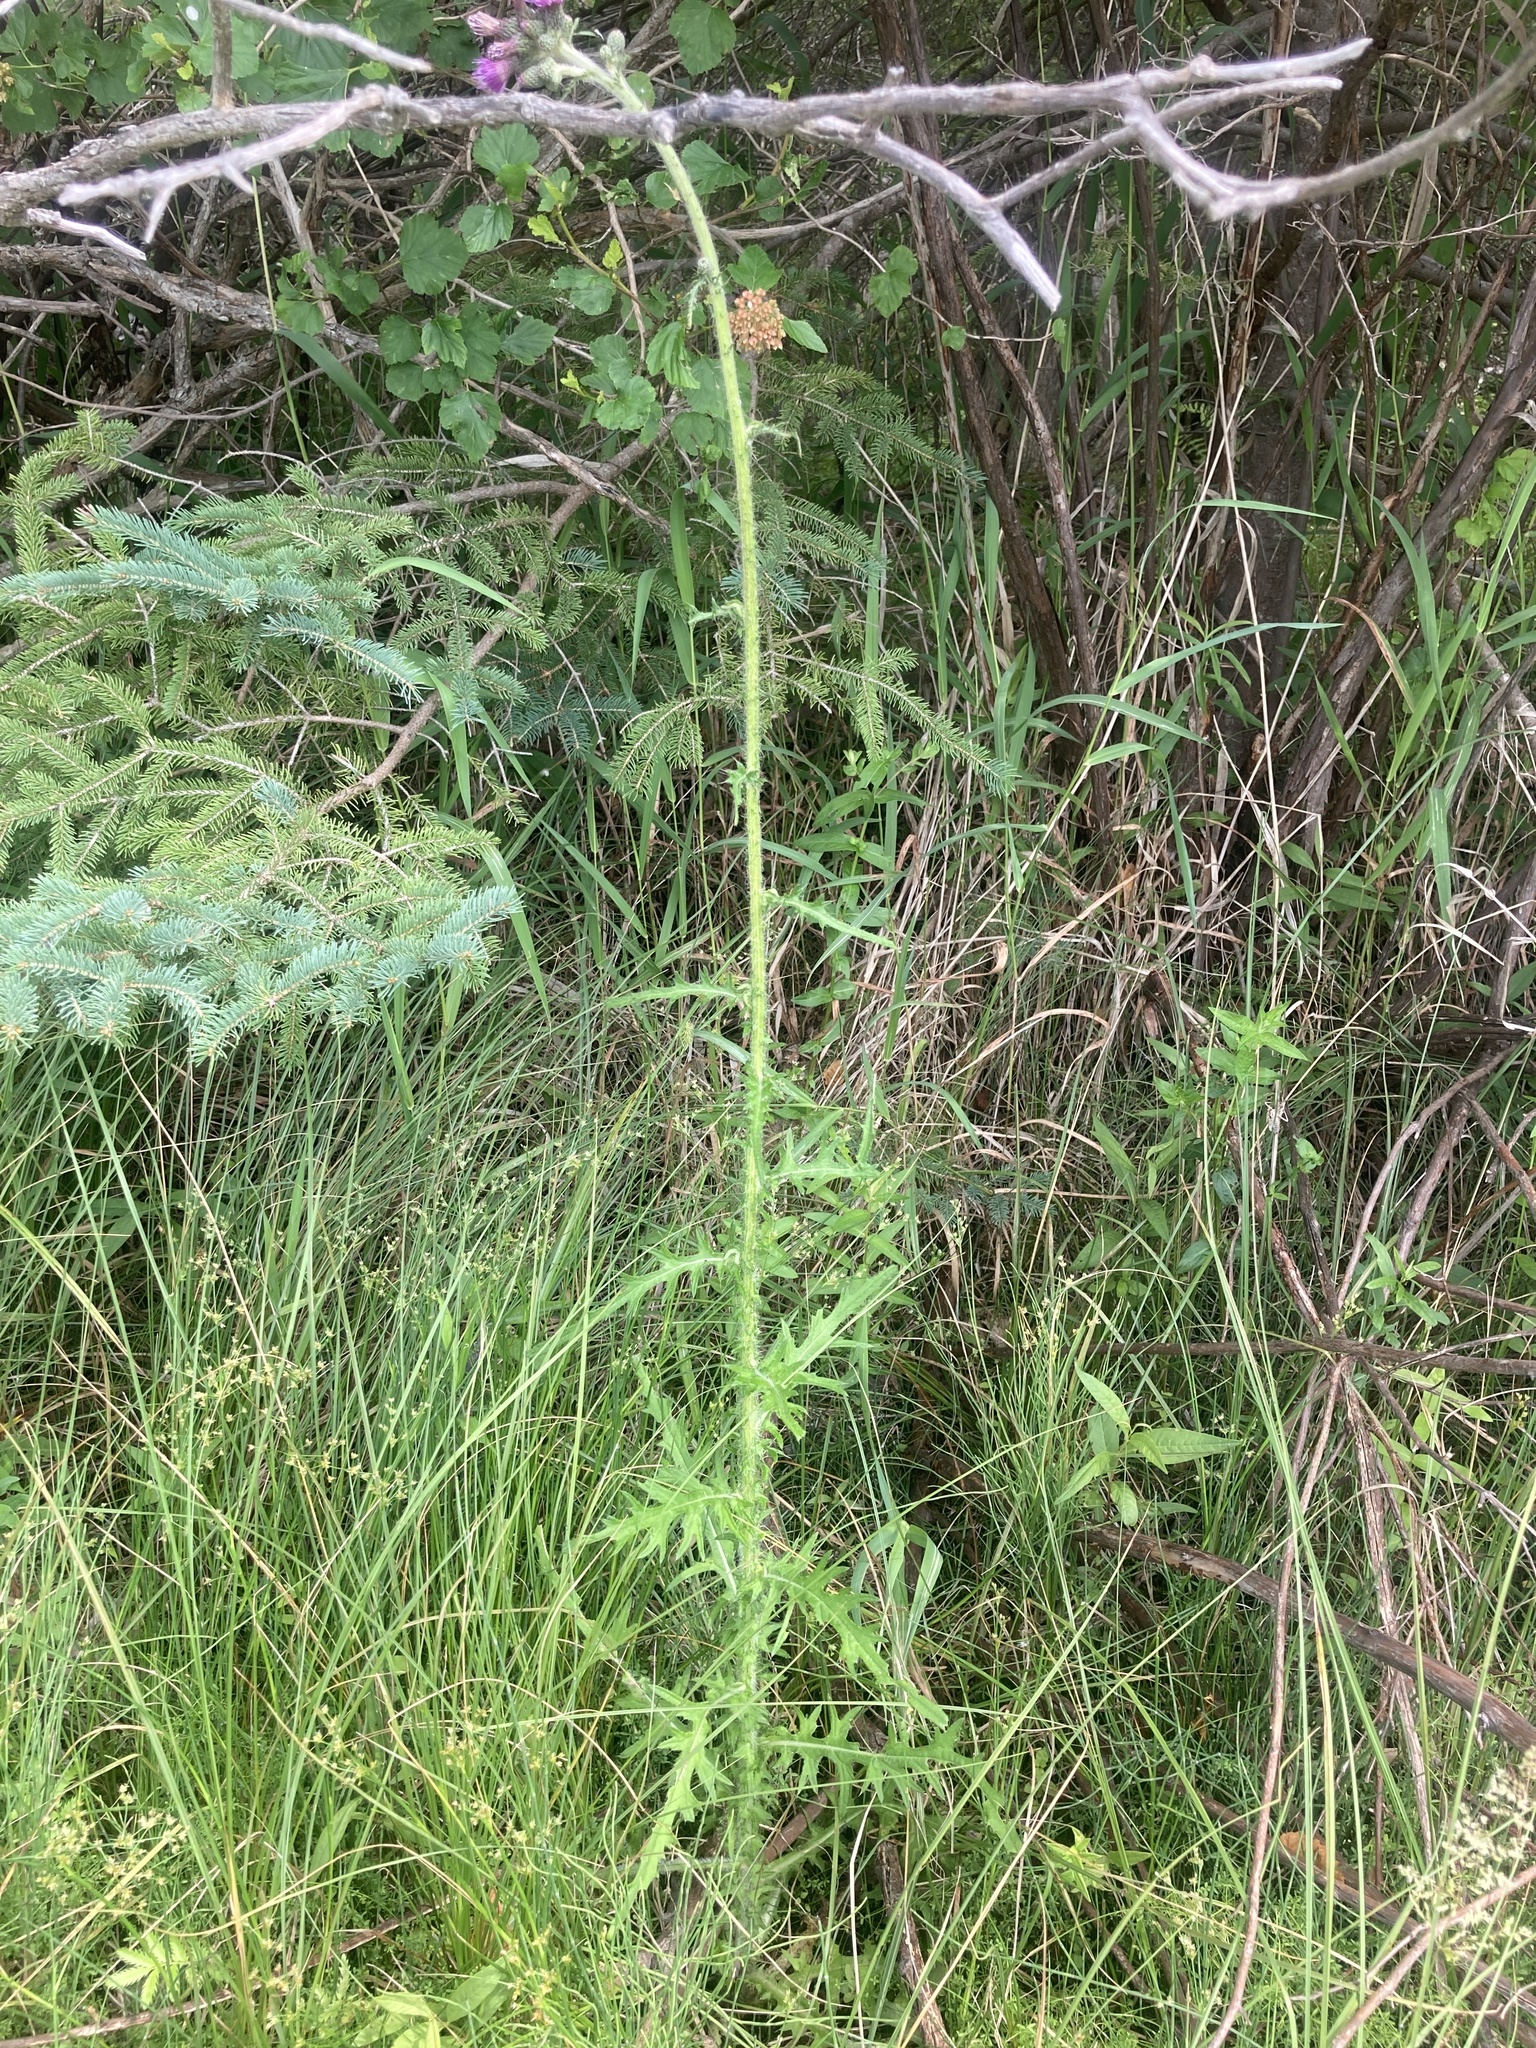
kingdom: Plantae
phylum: Tracheophyta
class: Magnoliopsida
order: Asterales
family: Asteraceae
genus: Cirsium
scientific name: Cirsium palustre
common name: Marsh thistle
